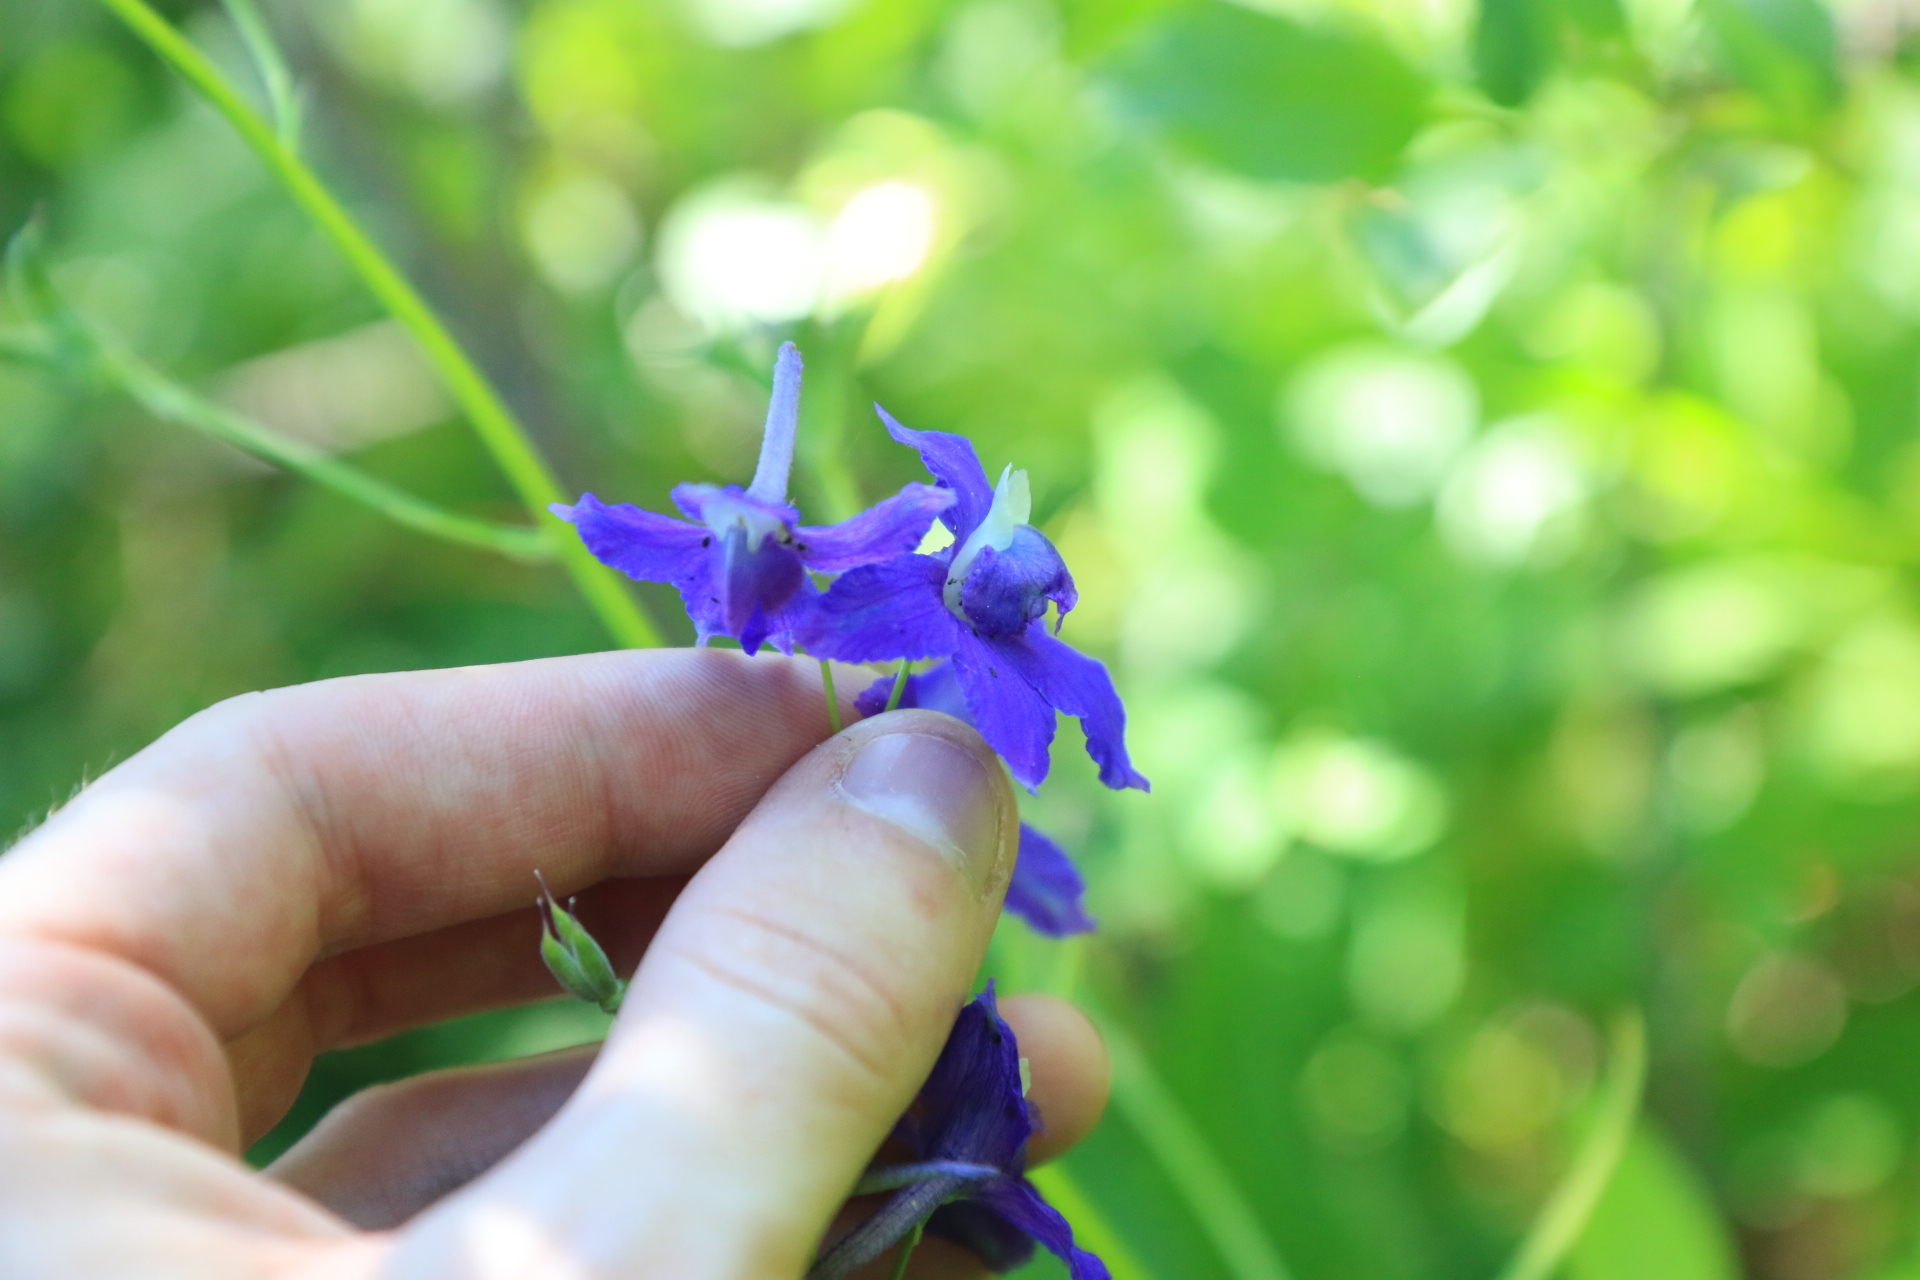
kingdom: Plantae
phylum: Tracheophyta
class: Magnoliopsida
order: Ranunculales
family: Ranunculaceae
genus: Delphinium
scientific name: Delphinium menziesii
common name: Menzies's larkspur
